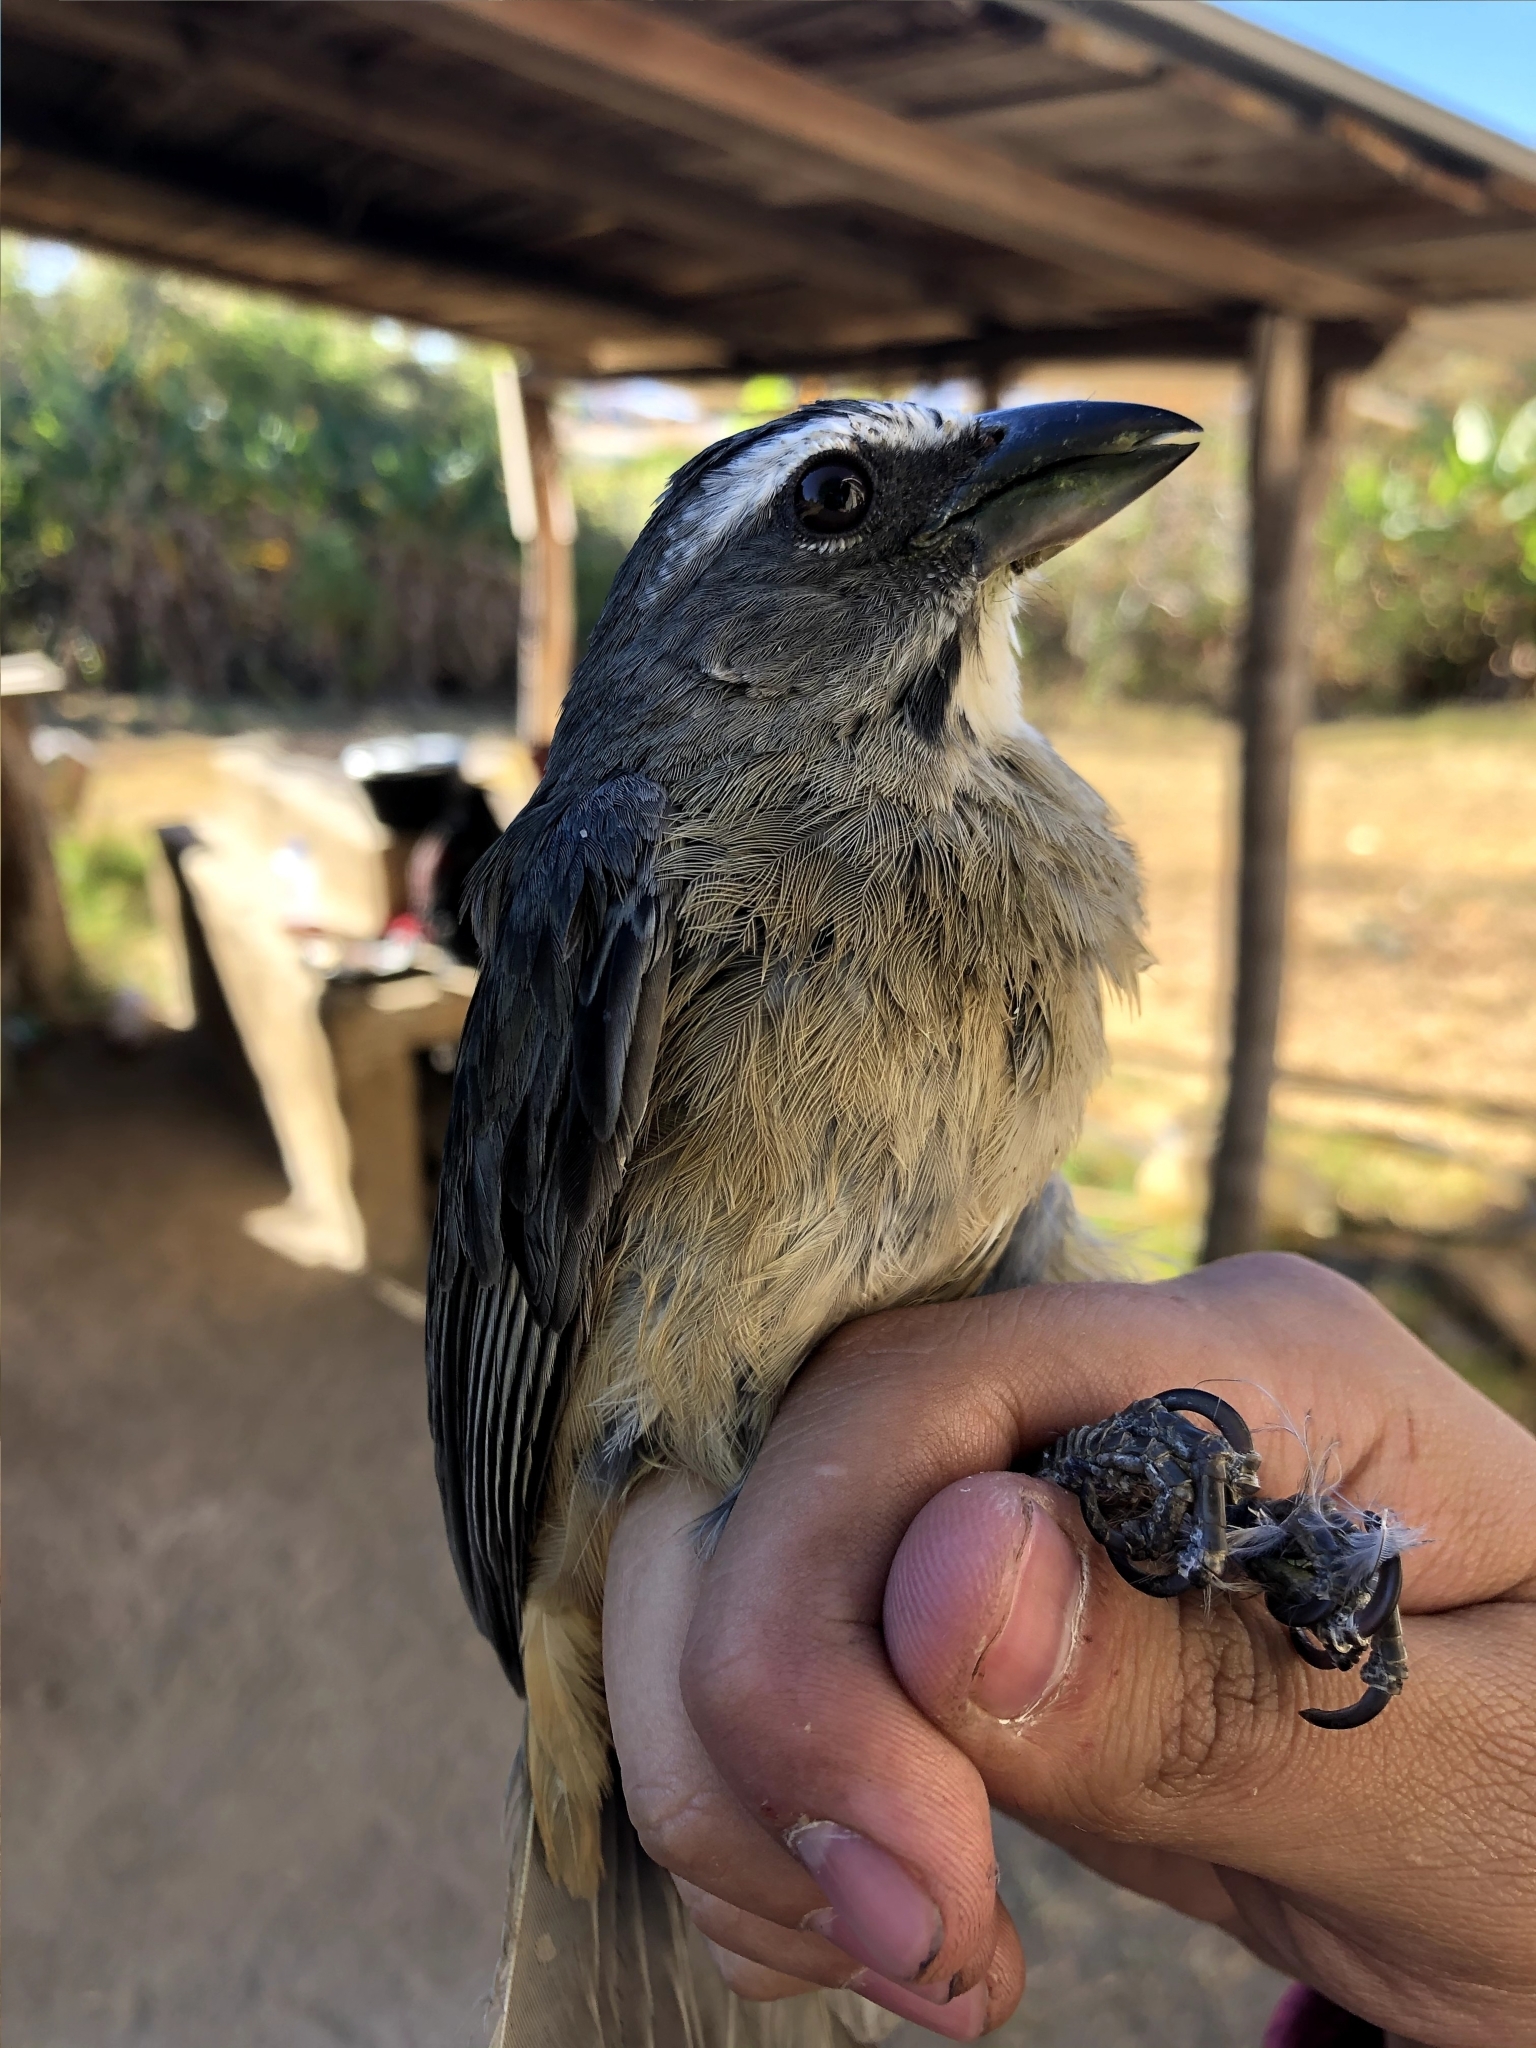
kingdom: Animalia
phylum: Chordata
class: Aves
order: Passeriformes
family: Thraupidae
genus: Saltator
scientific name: Saltator grandis
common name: Cinnamon-bellied saltator
